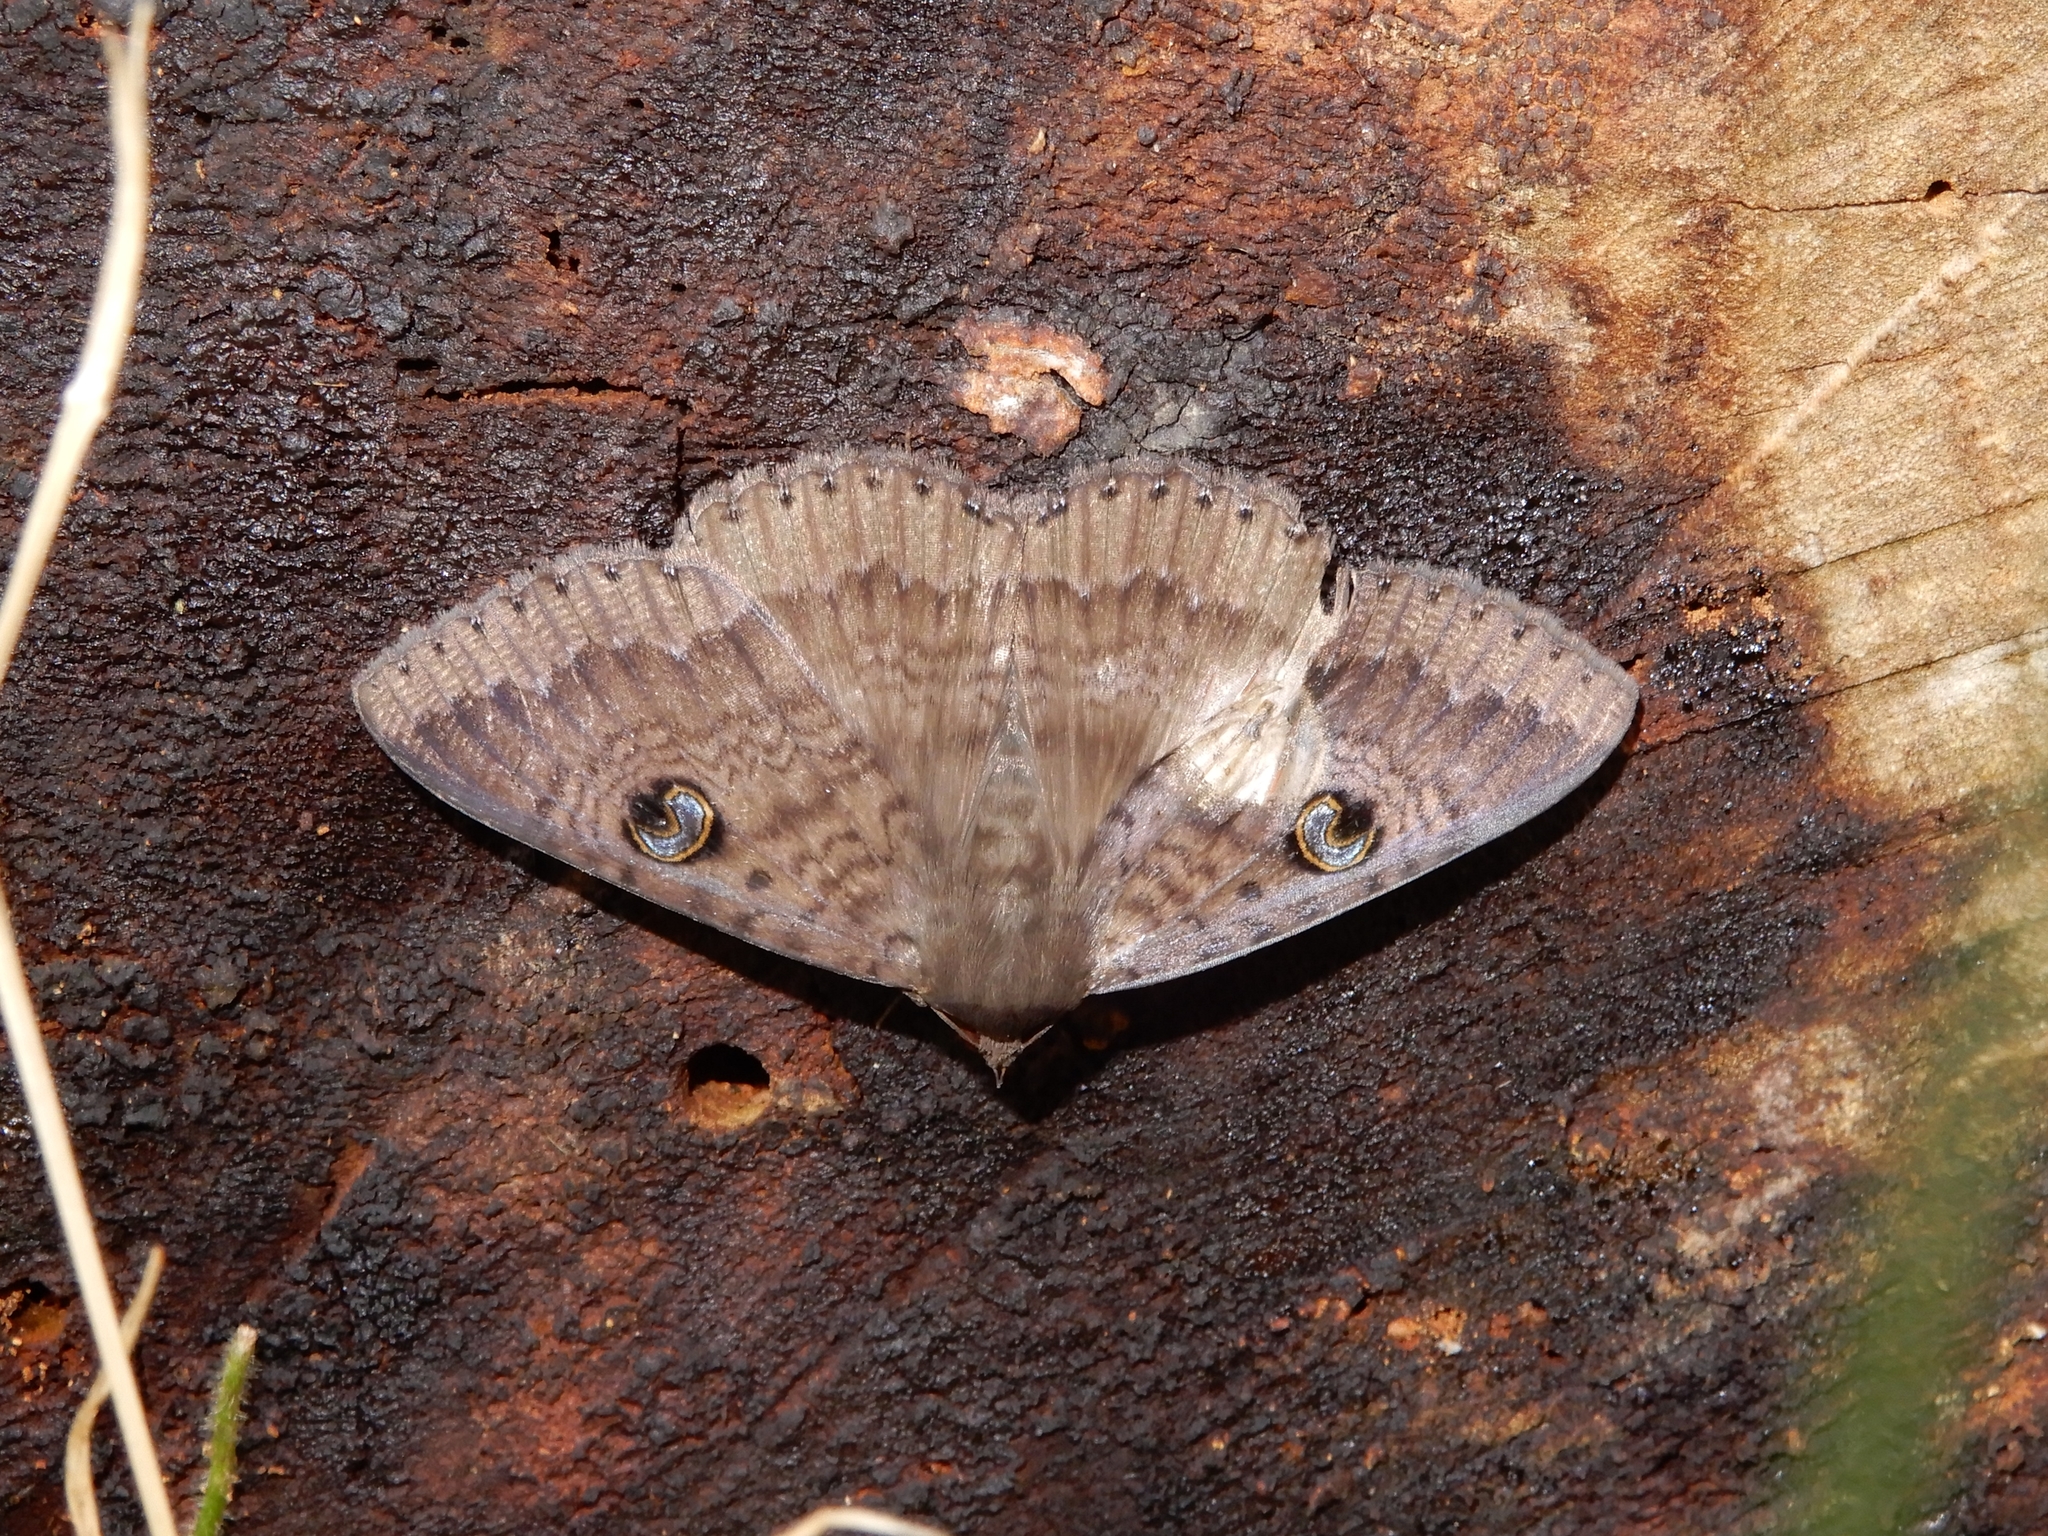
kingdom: Animalia
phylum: Arthropoda
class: Insecta
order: Lepidoptera
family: Erebidae
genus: Dasypodia
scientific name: Dasypodia cymatodes
